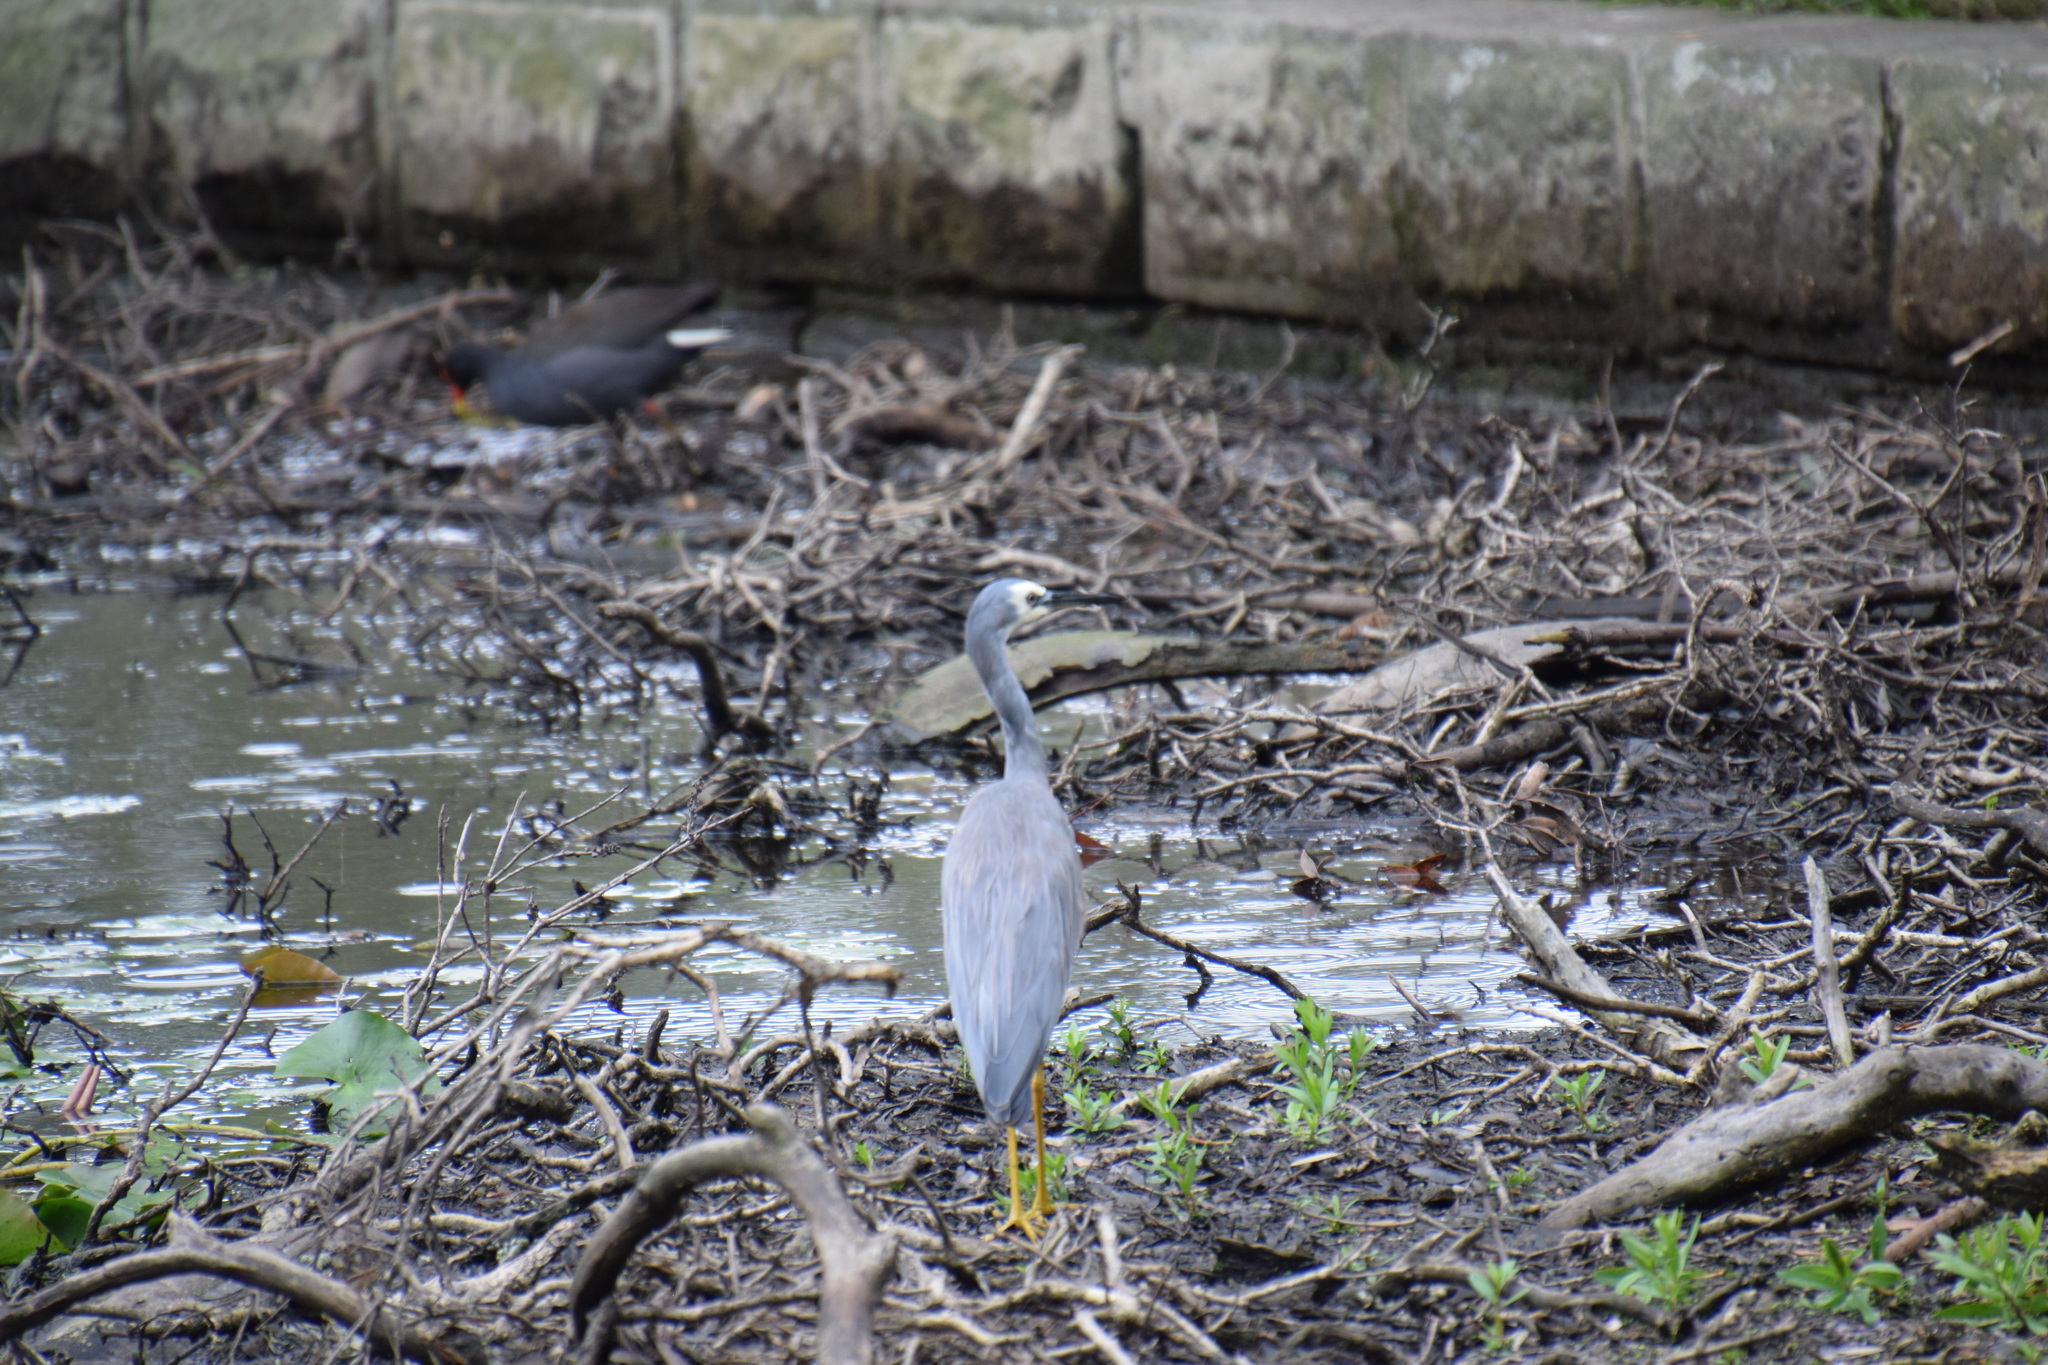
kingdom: Animalia
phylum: Chordata
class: Aves
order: Pelecaniformes
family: Ardeidae
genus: Egretta
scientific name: Egretta novaehollandiae
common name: White-faced heron
